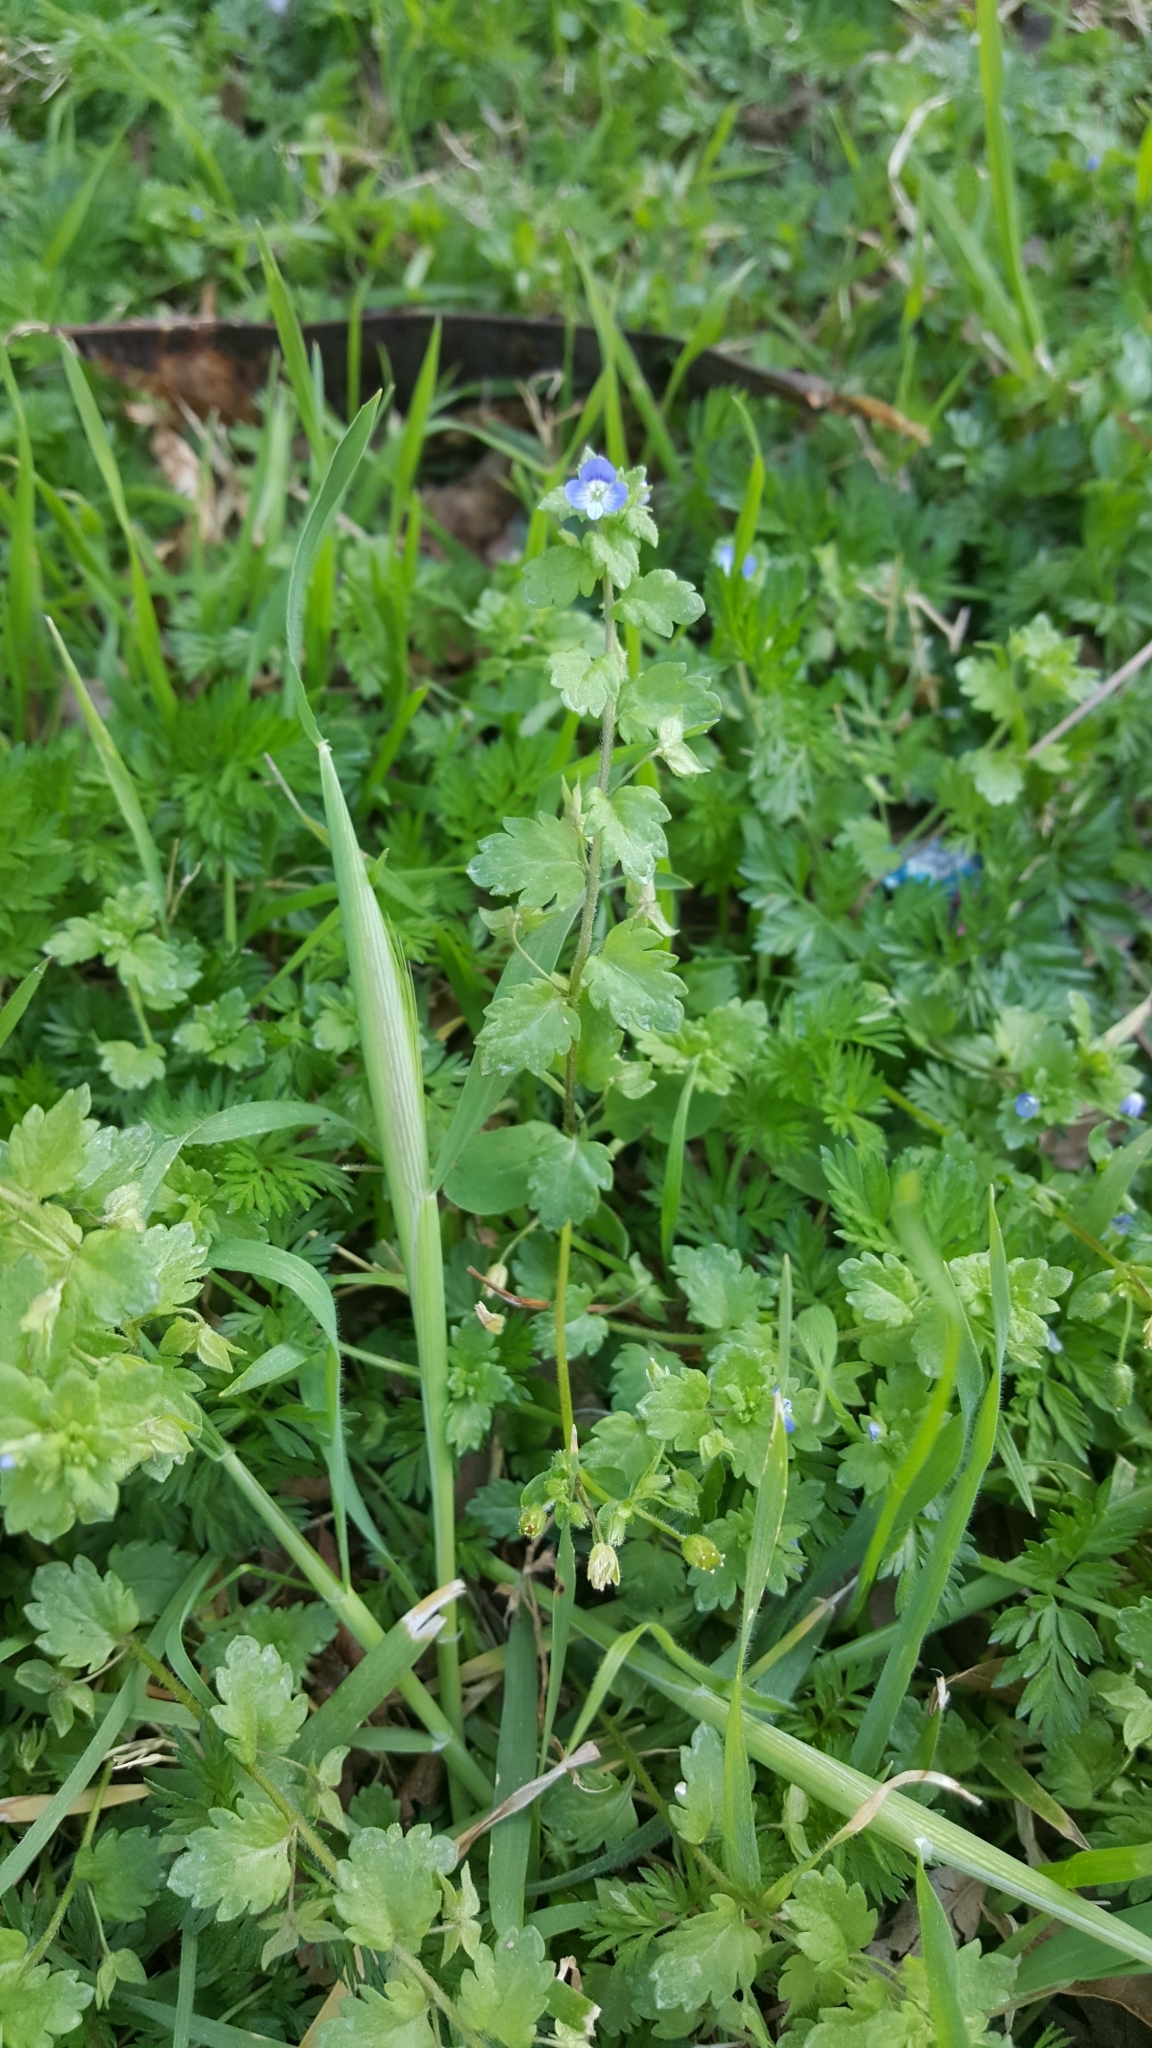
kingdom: Plantae
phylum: Tracheophyta
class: Magnoliopsida
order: Lamiales
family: Plantaginaceae
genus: Veronica
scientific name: Veronica persica
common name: Common field-speedwell
